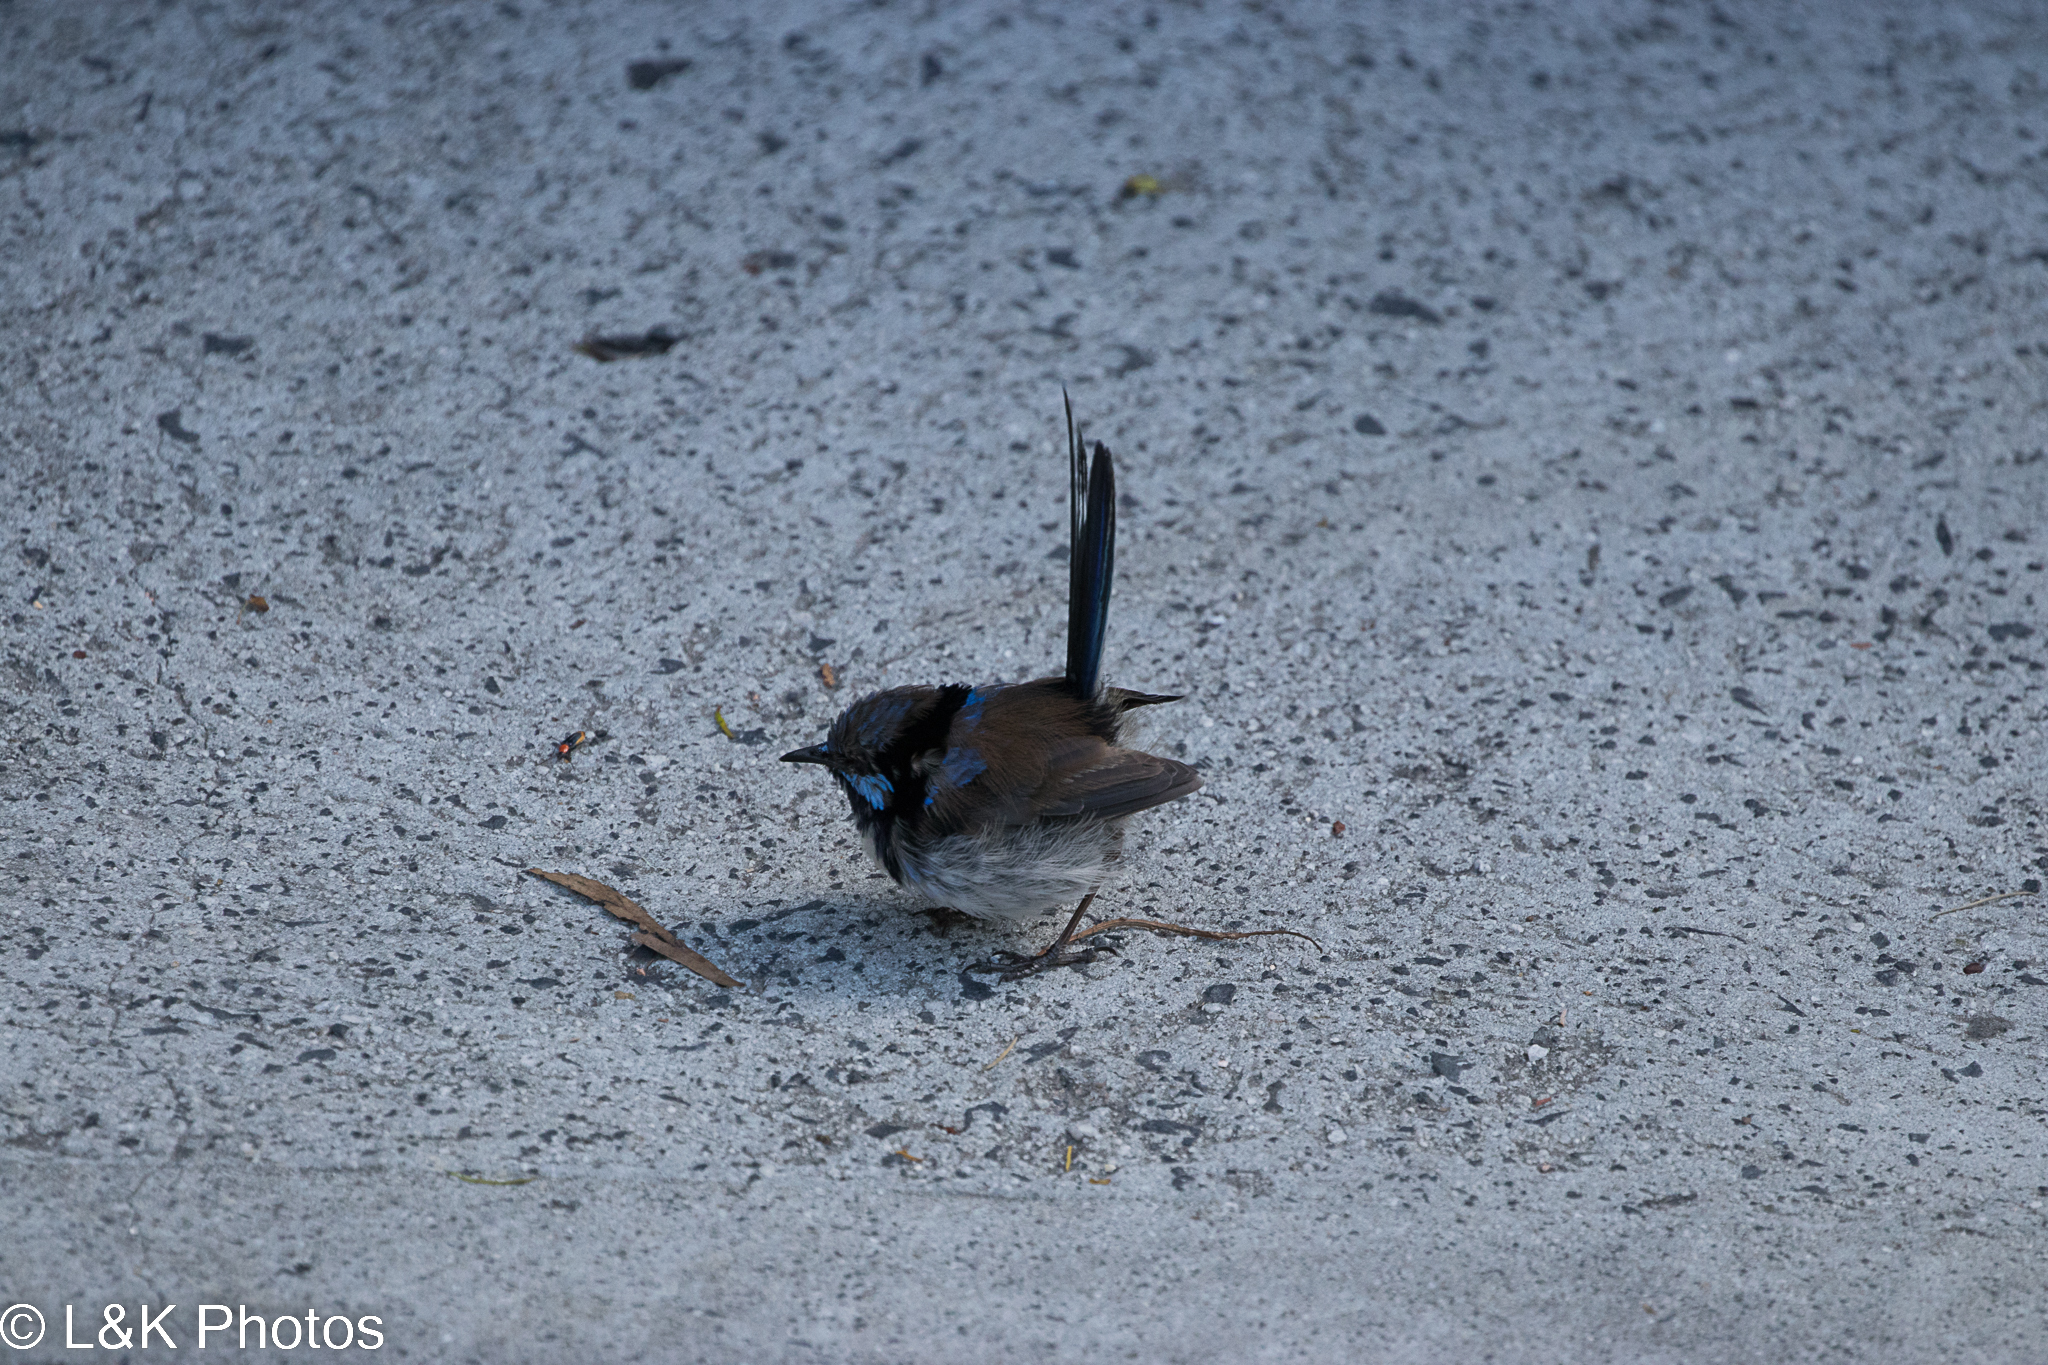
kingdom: Animalia
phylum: Chordata
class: Aves
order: Passeriformes
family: Maluridae
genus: Malurus
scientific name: Malurus cyaneus
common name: Superb fairywren
